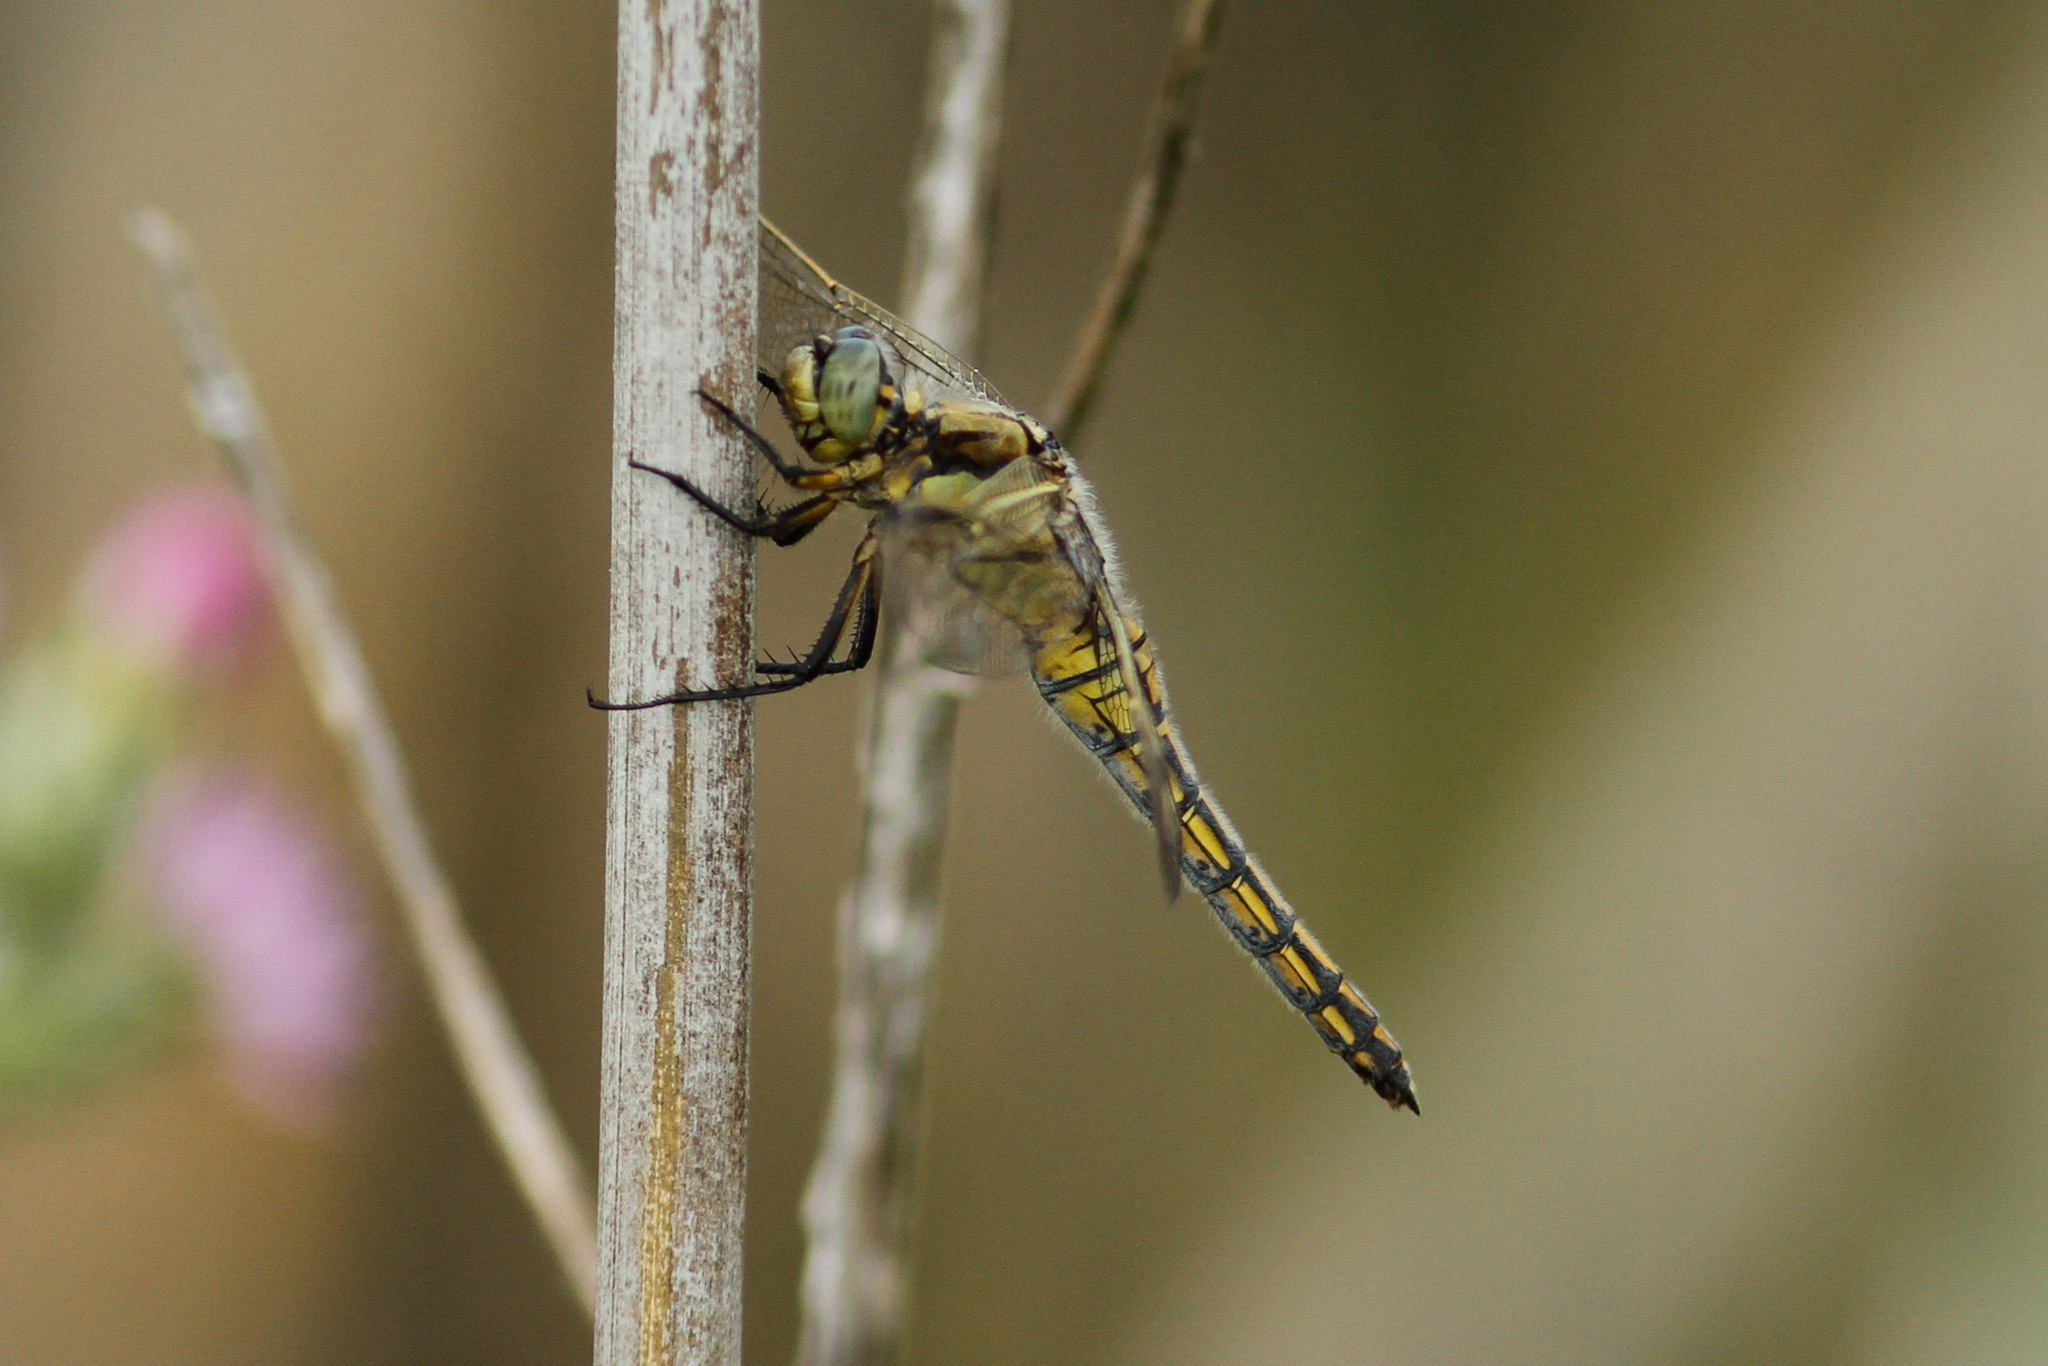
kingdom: Animalia
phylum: Arthropoda
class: Insecta
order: Odonata
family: Libellulidae
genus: Orthetrum
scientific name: Orthetrum cancellatum
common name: Black-tailed skimmer
